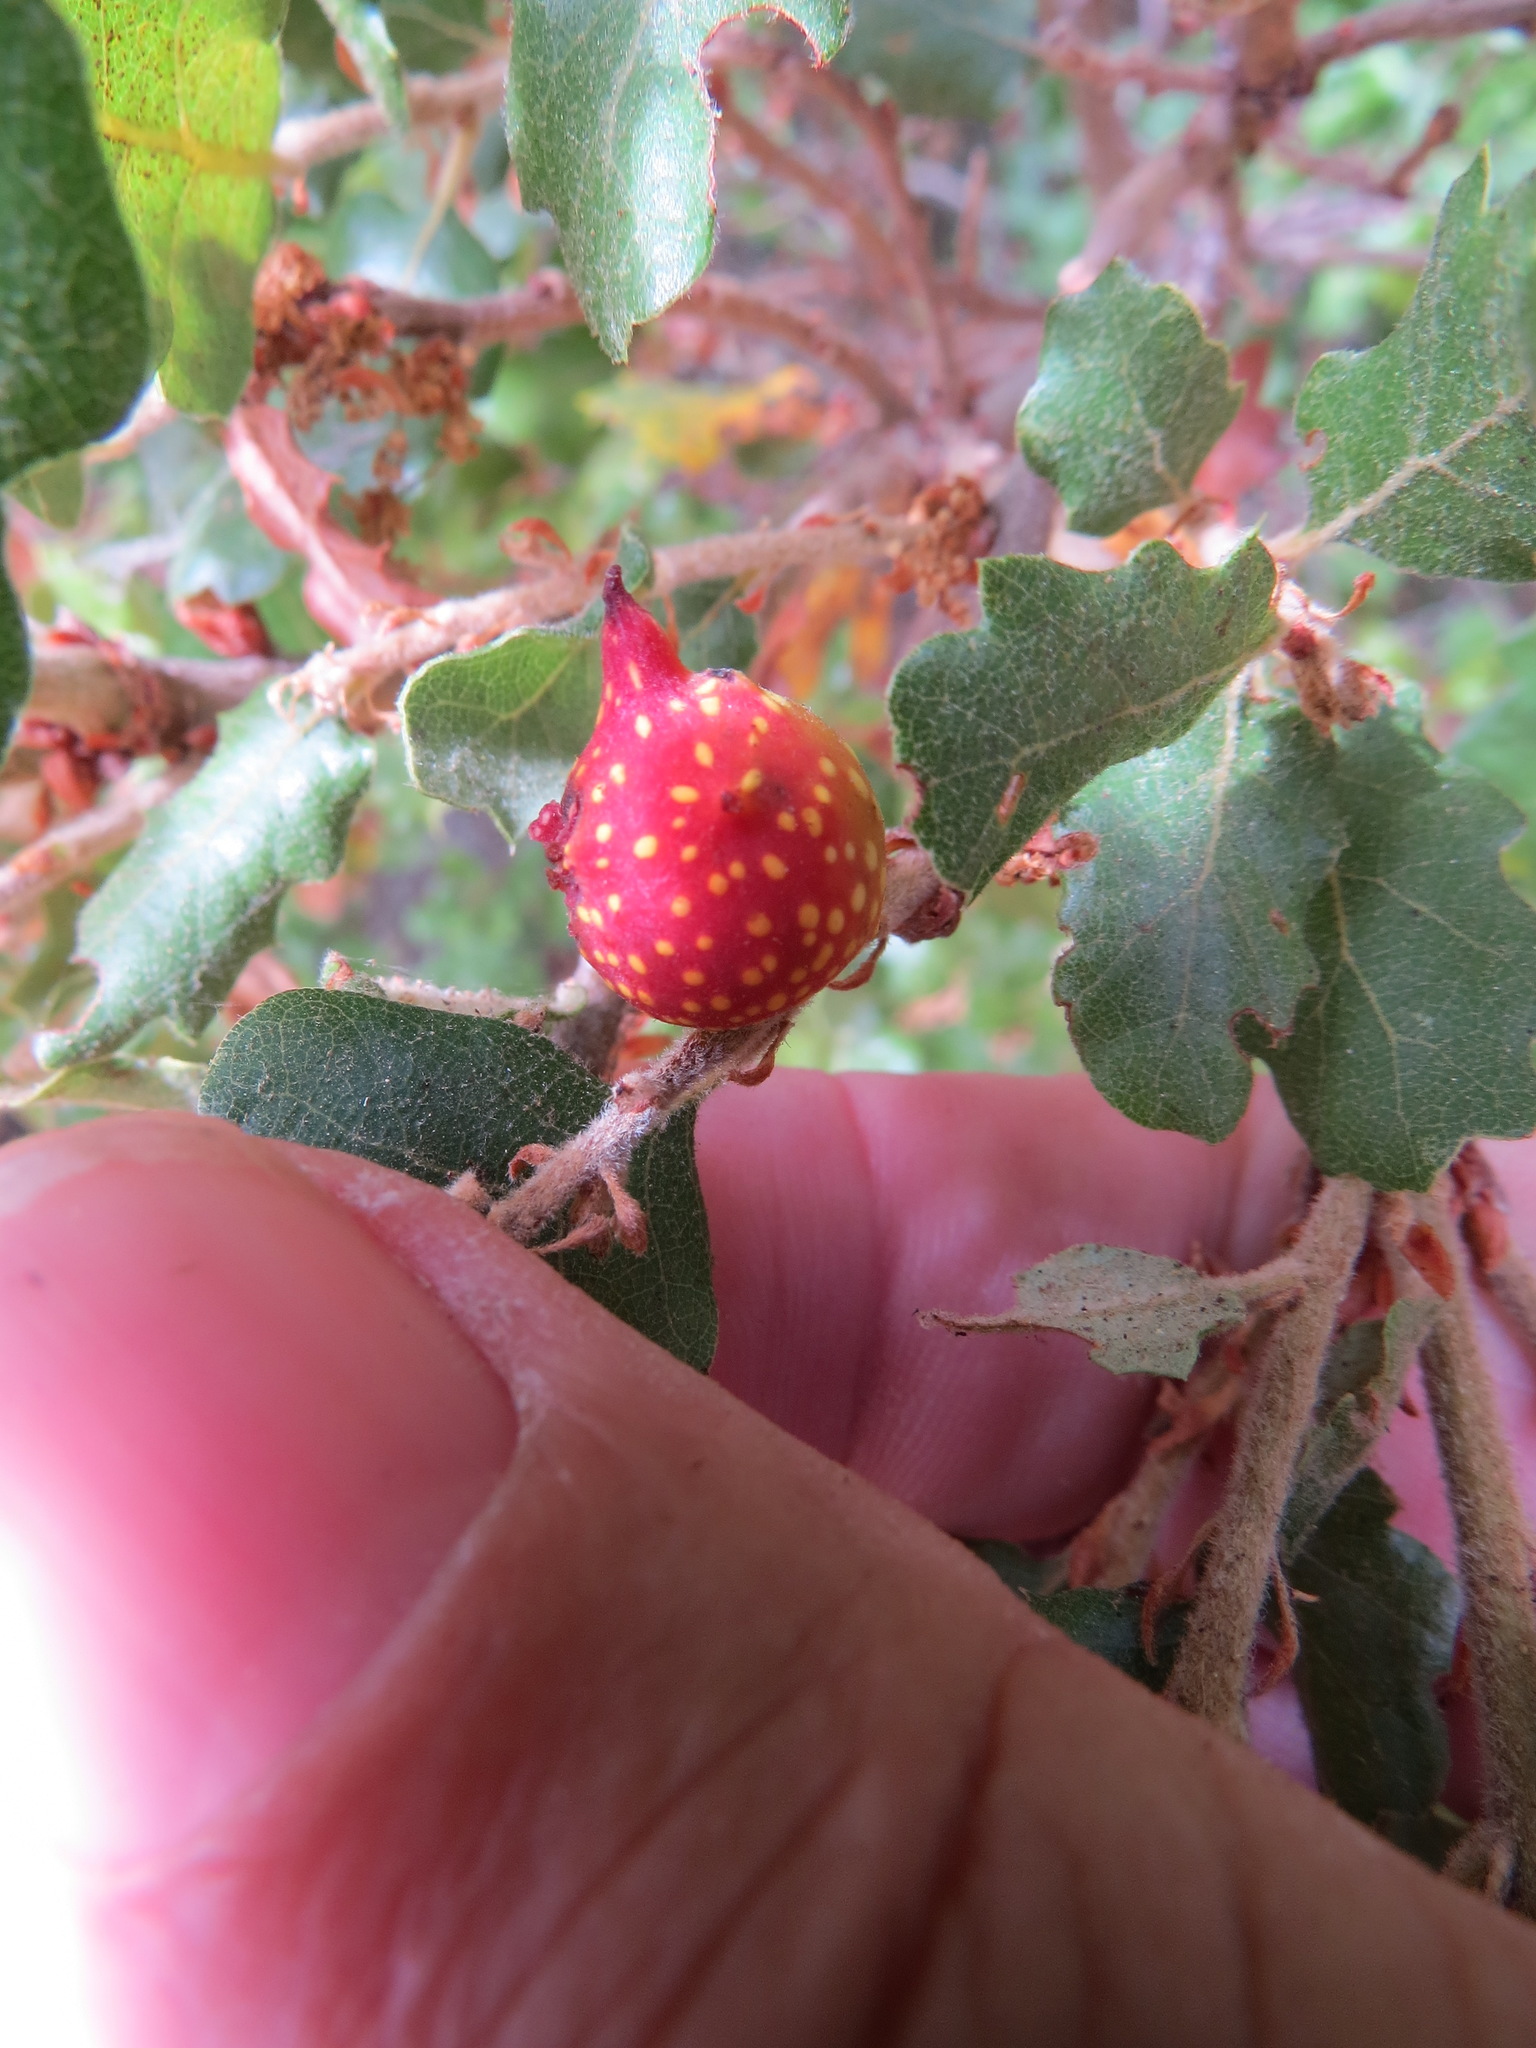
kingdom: Animalia
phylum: Arthropoda
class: Insecta
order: Hymenoptera
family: Cynipidae
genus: Burnettweldia
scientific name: Burnettweldia
